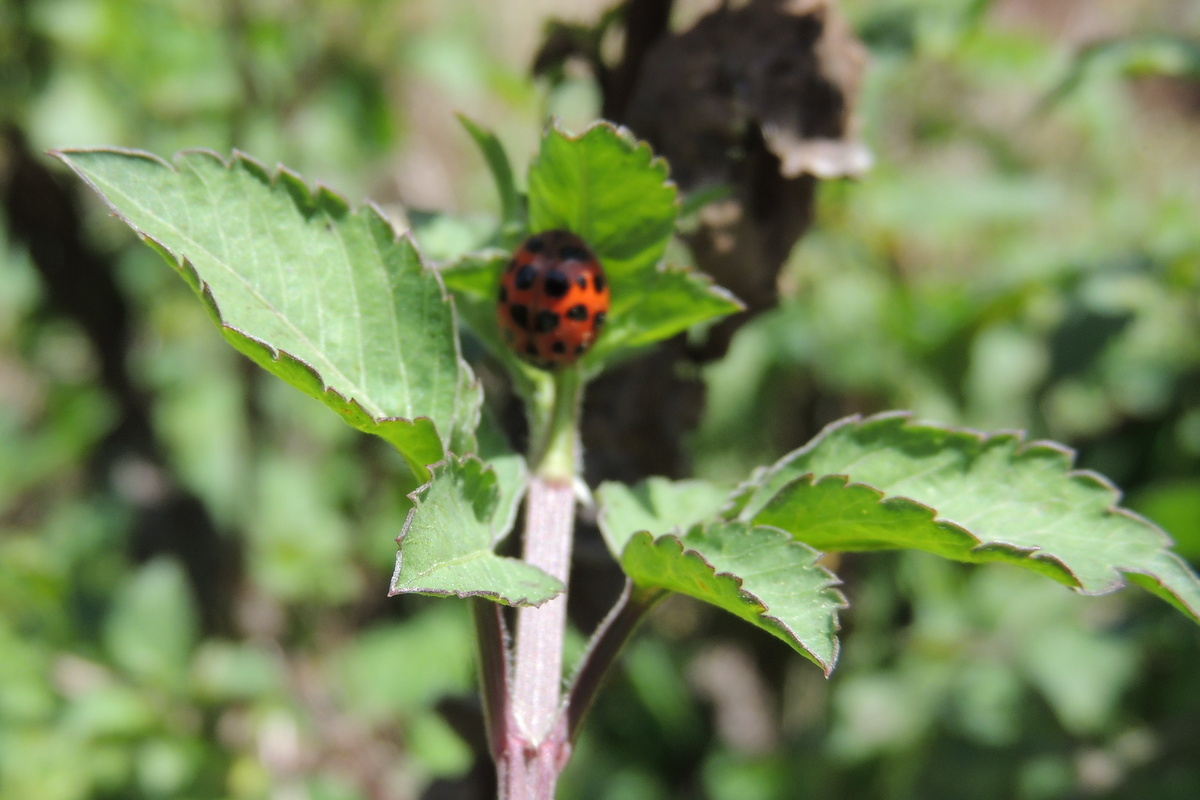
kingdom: Animalia
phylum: Arthropoda
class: Insecta
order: Coleoptera
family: Coccinellidae
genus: Harmonia
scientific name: Harmonia axyridis
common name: Harlequin ladybird
